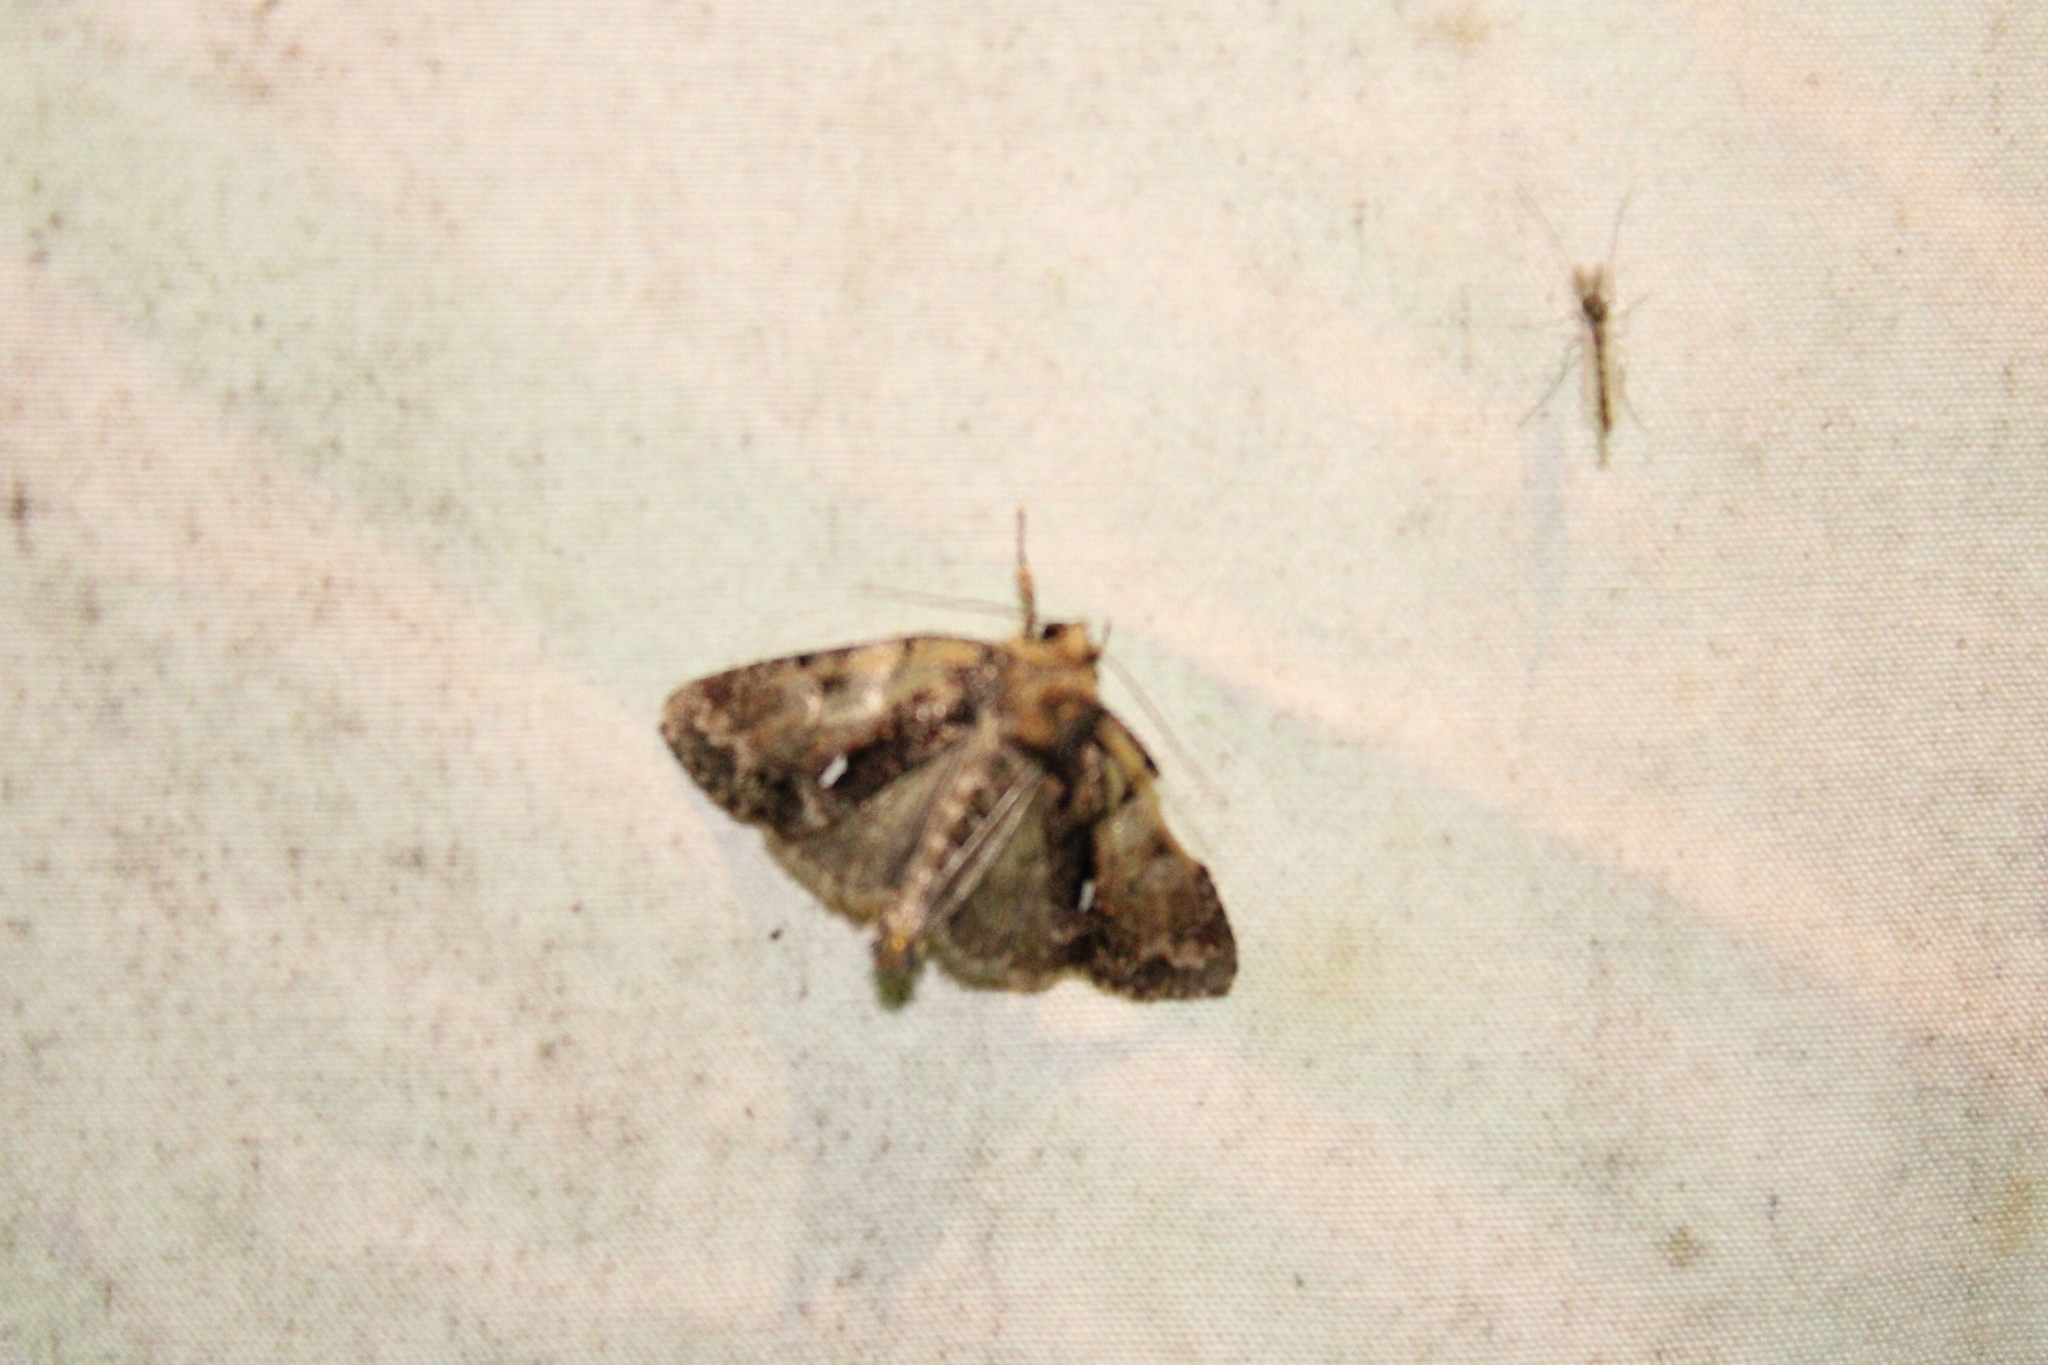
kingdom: Animalia
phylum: Arthropoda
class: Insecta
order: Lepidoptera
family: Noctuidae
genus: Chytonix
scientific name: Chytonix palliatricula
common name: Cloaked marvel
